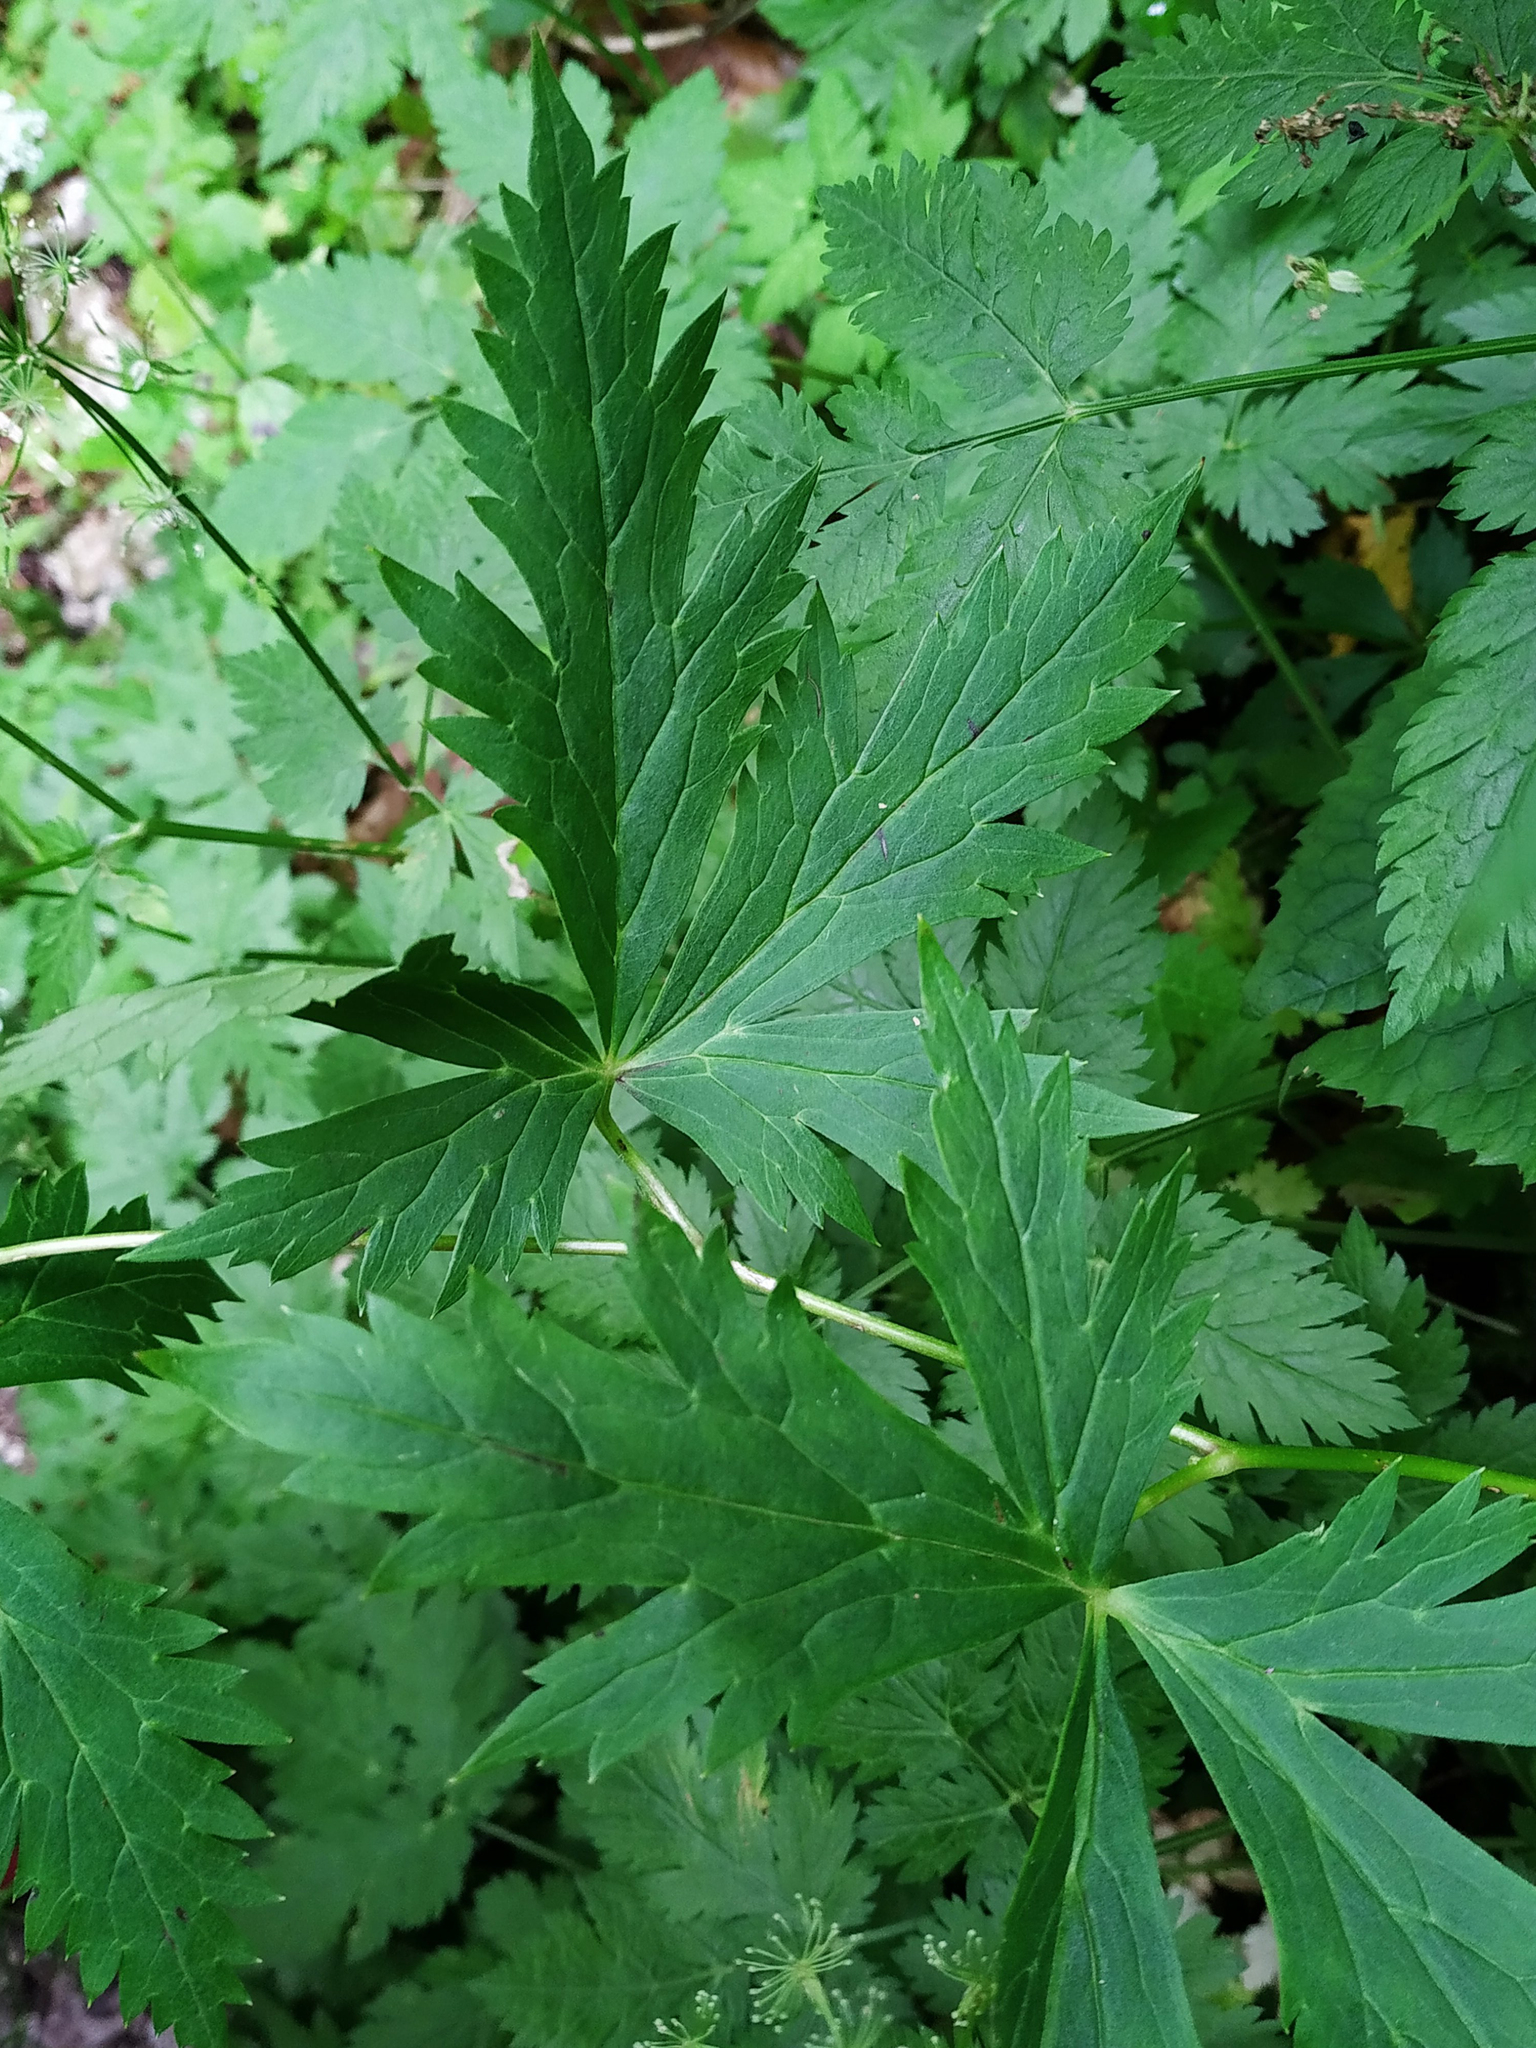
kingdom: Plantae
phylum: Tracheophyta
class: Magnoliopsida
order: Ranunculales
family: Ranunculaceae
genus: Aconitum
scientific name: Aconitum degenii
